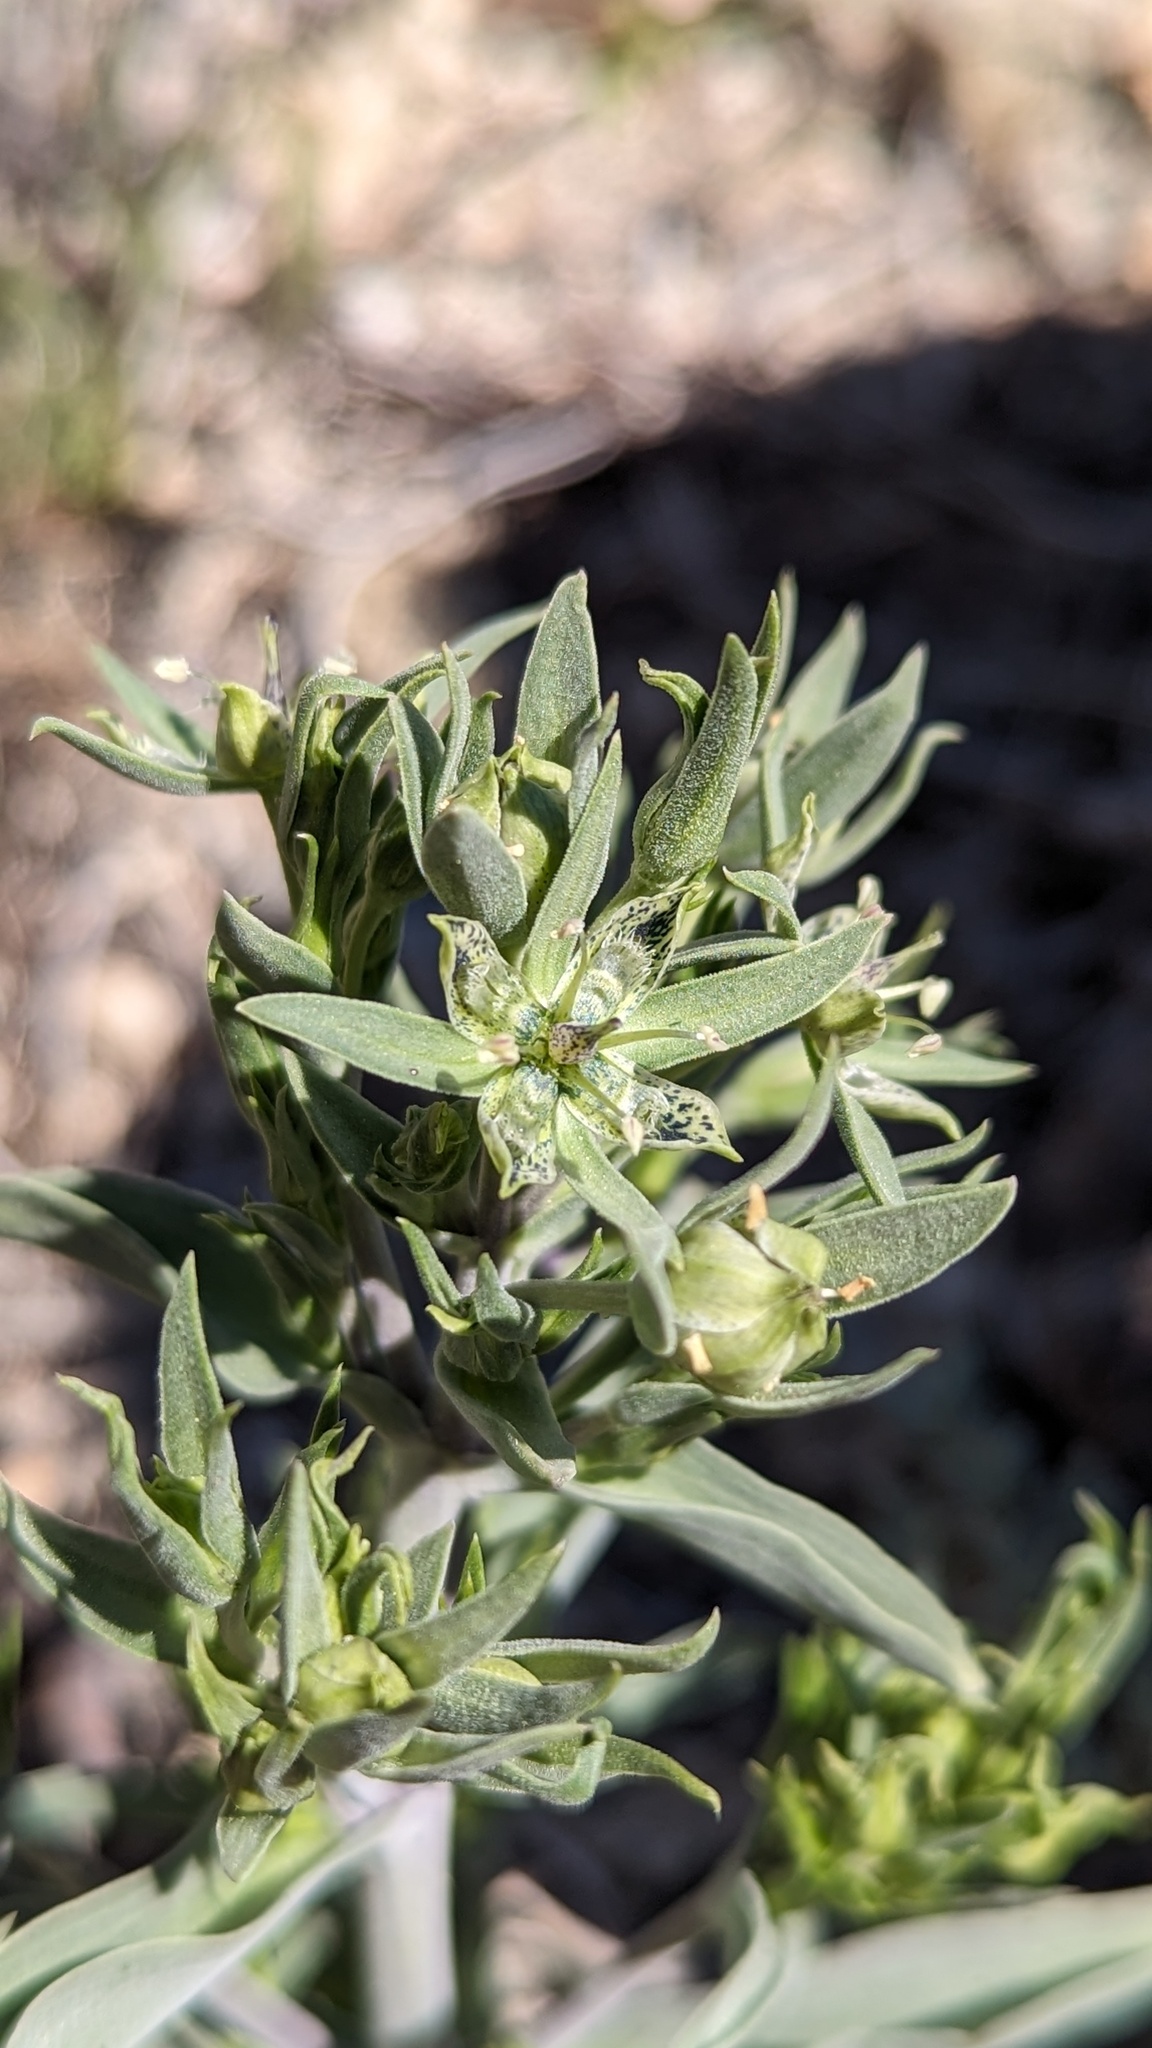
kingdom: Plantae
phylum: Tracheophyta
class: Magnoliopsida
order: Gentianales
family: Gentianaceae
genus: Frasera
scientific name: Frasera puberulenta
